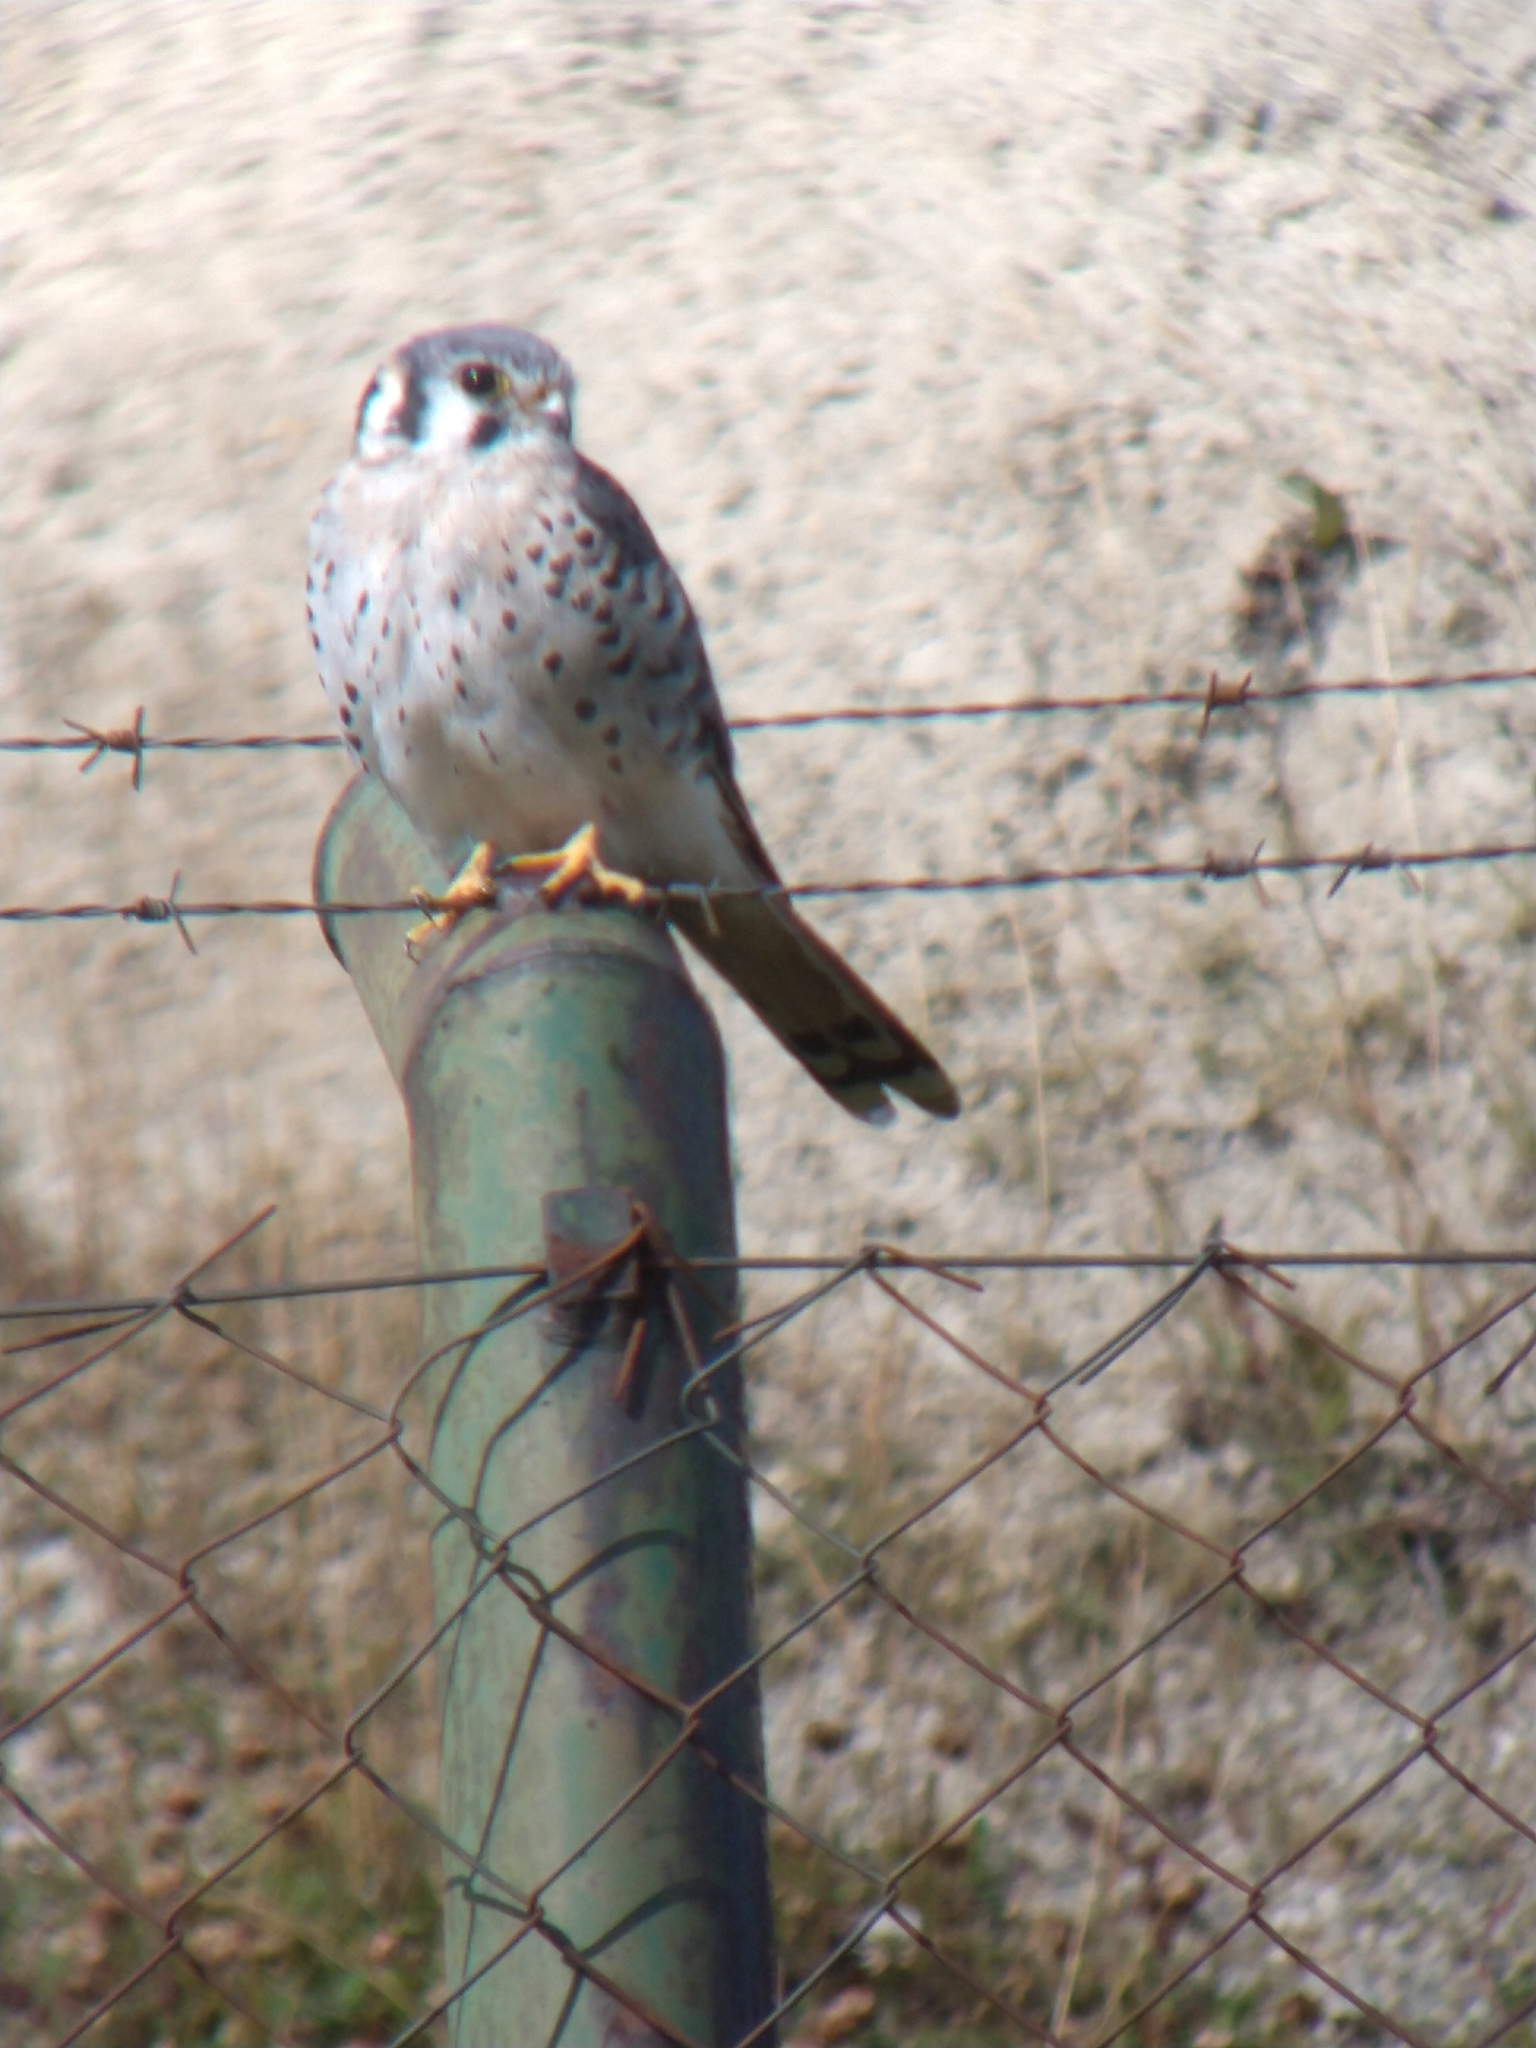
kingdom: Animalia
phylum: Chordata
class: Aves
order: Falconiformes
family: Falconidae
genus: Falco
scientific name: Falco sparverius
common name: American kestrel
